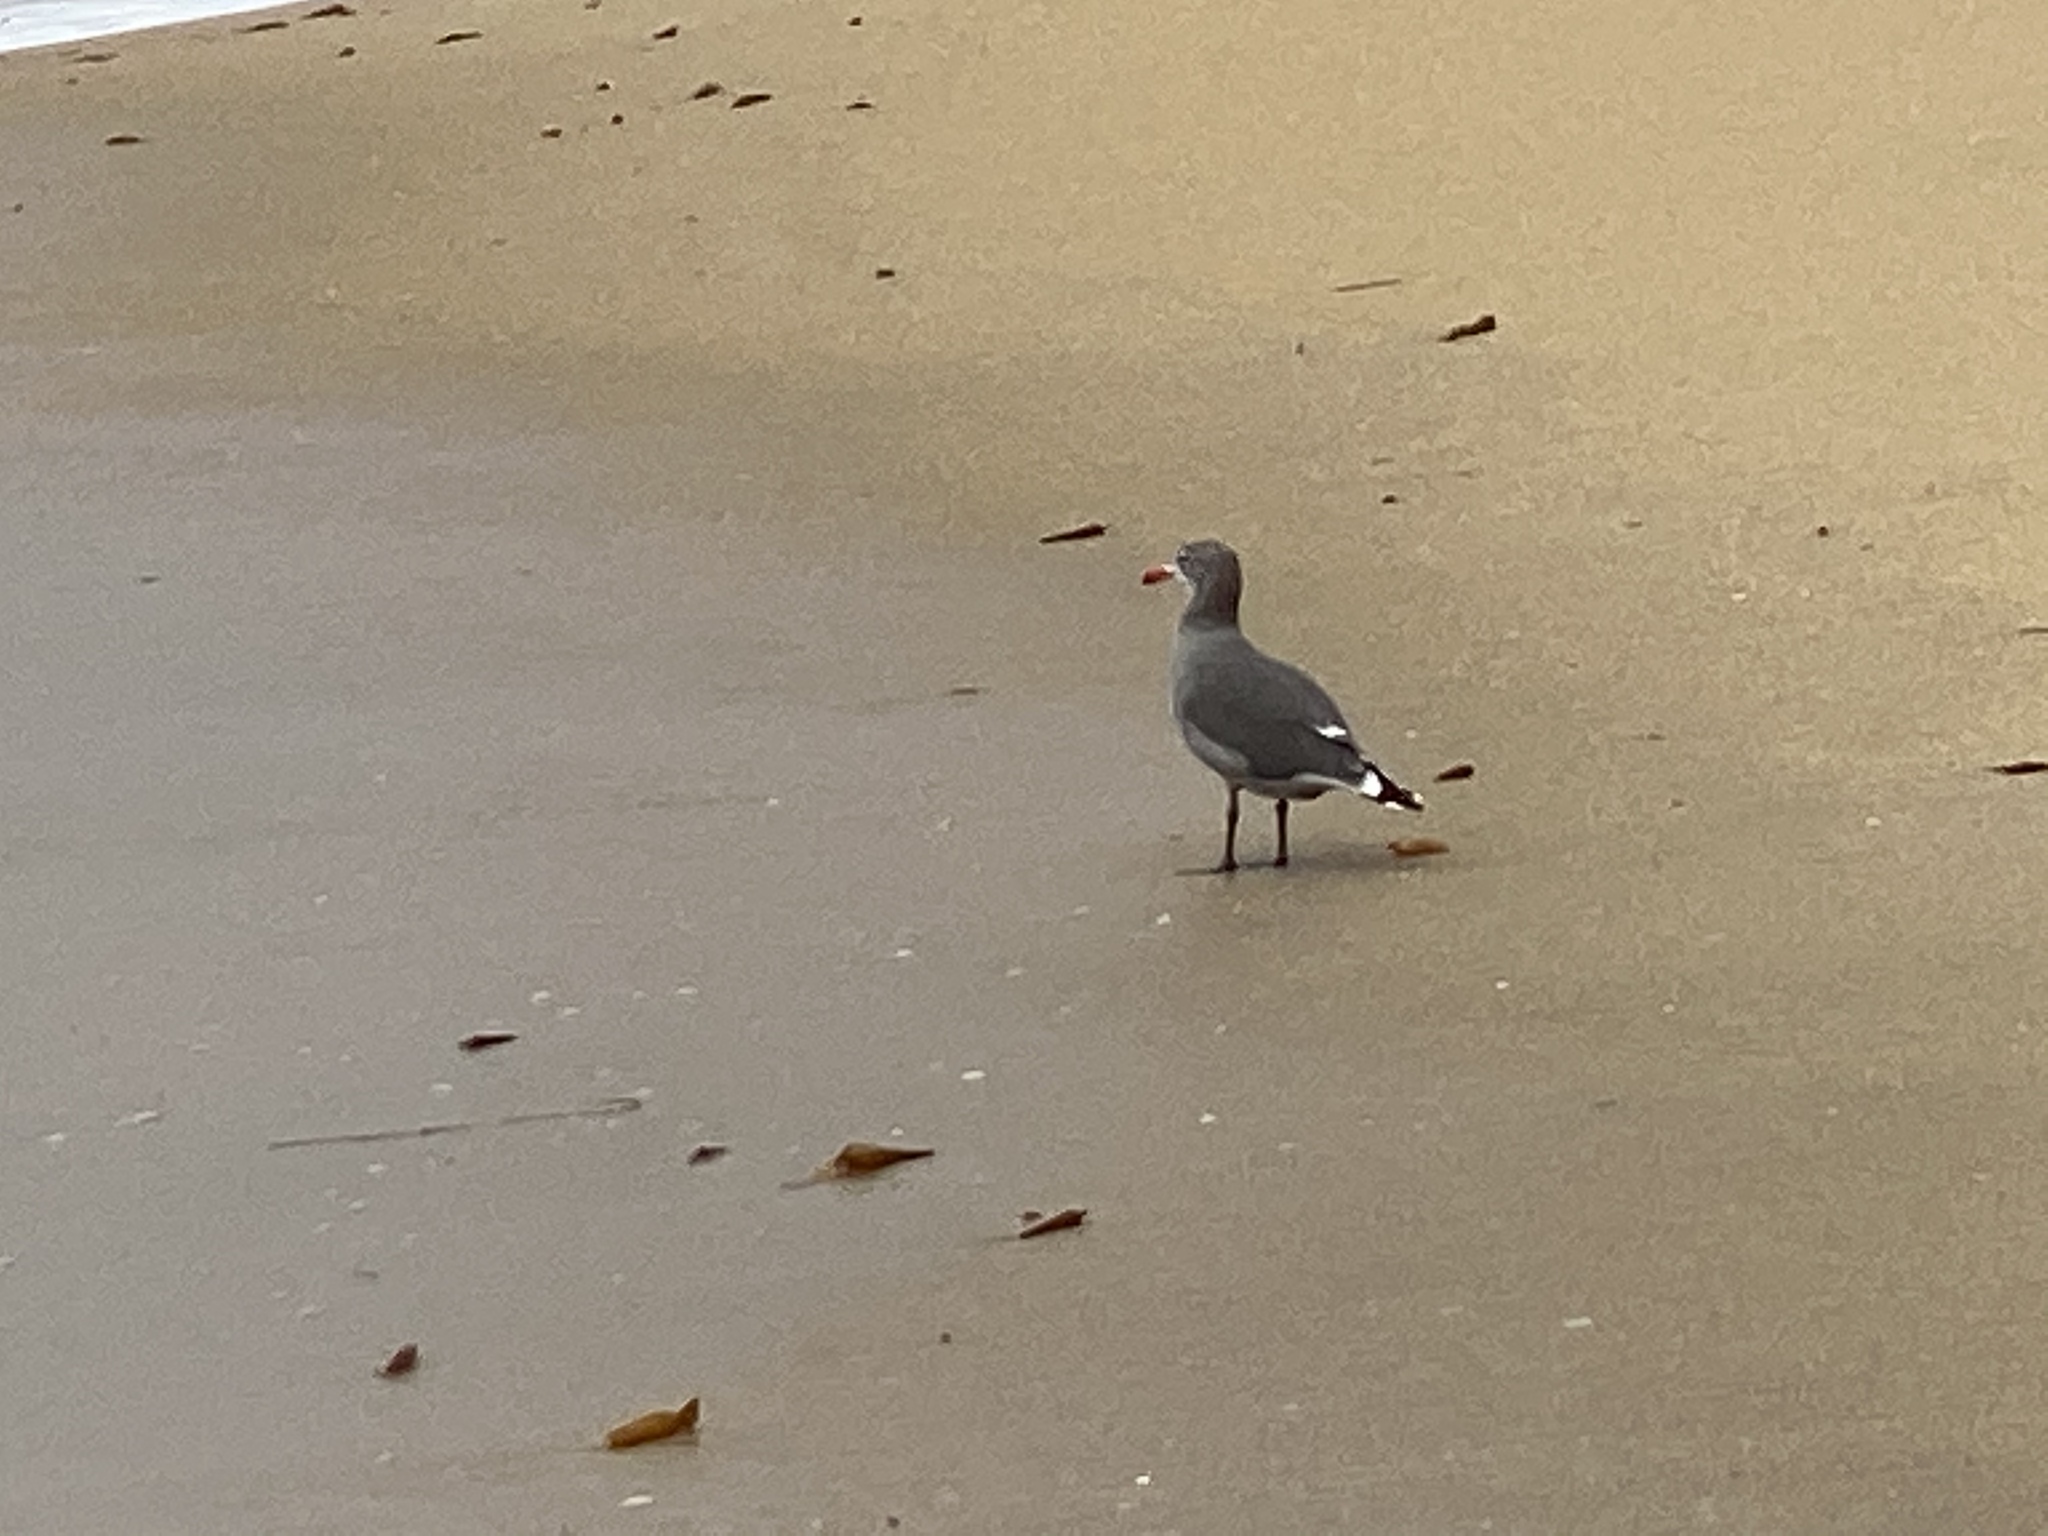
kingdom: Animalia
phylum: Chordata
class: Aves
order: Charadriiformes
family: Laridae
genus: Larus
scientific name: Larus heermanni
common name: Heermann's gull
